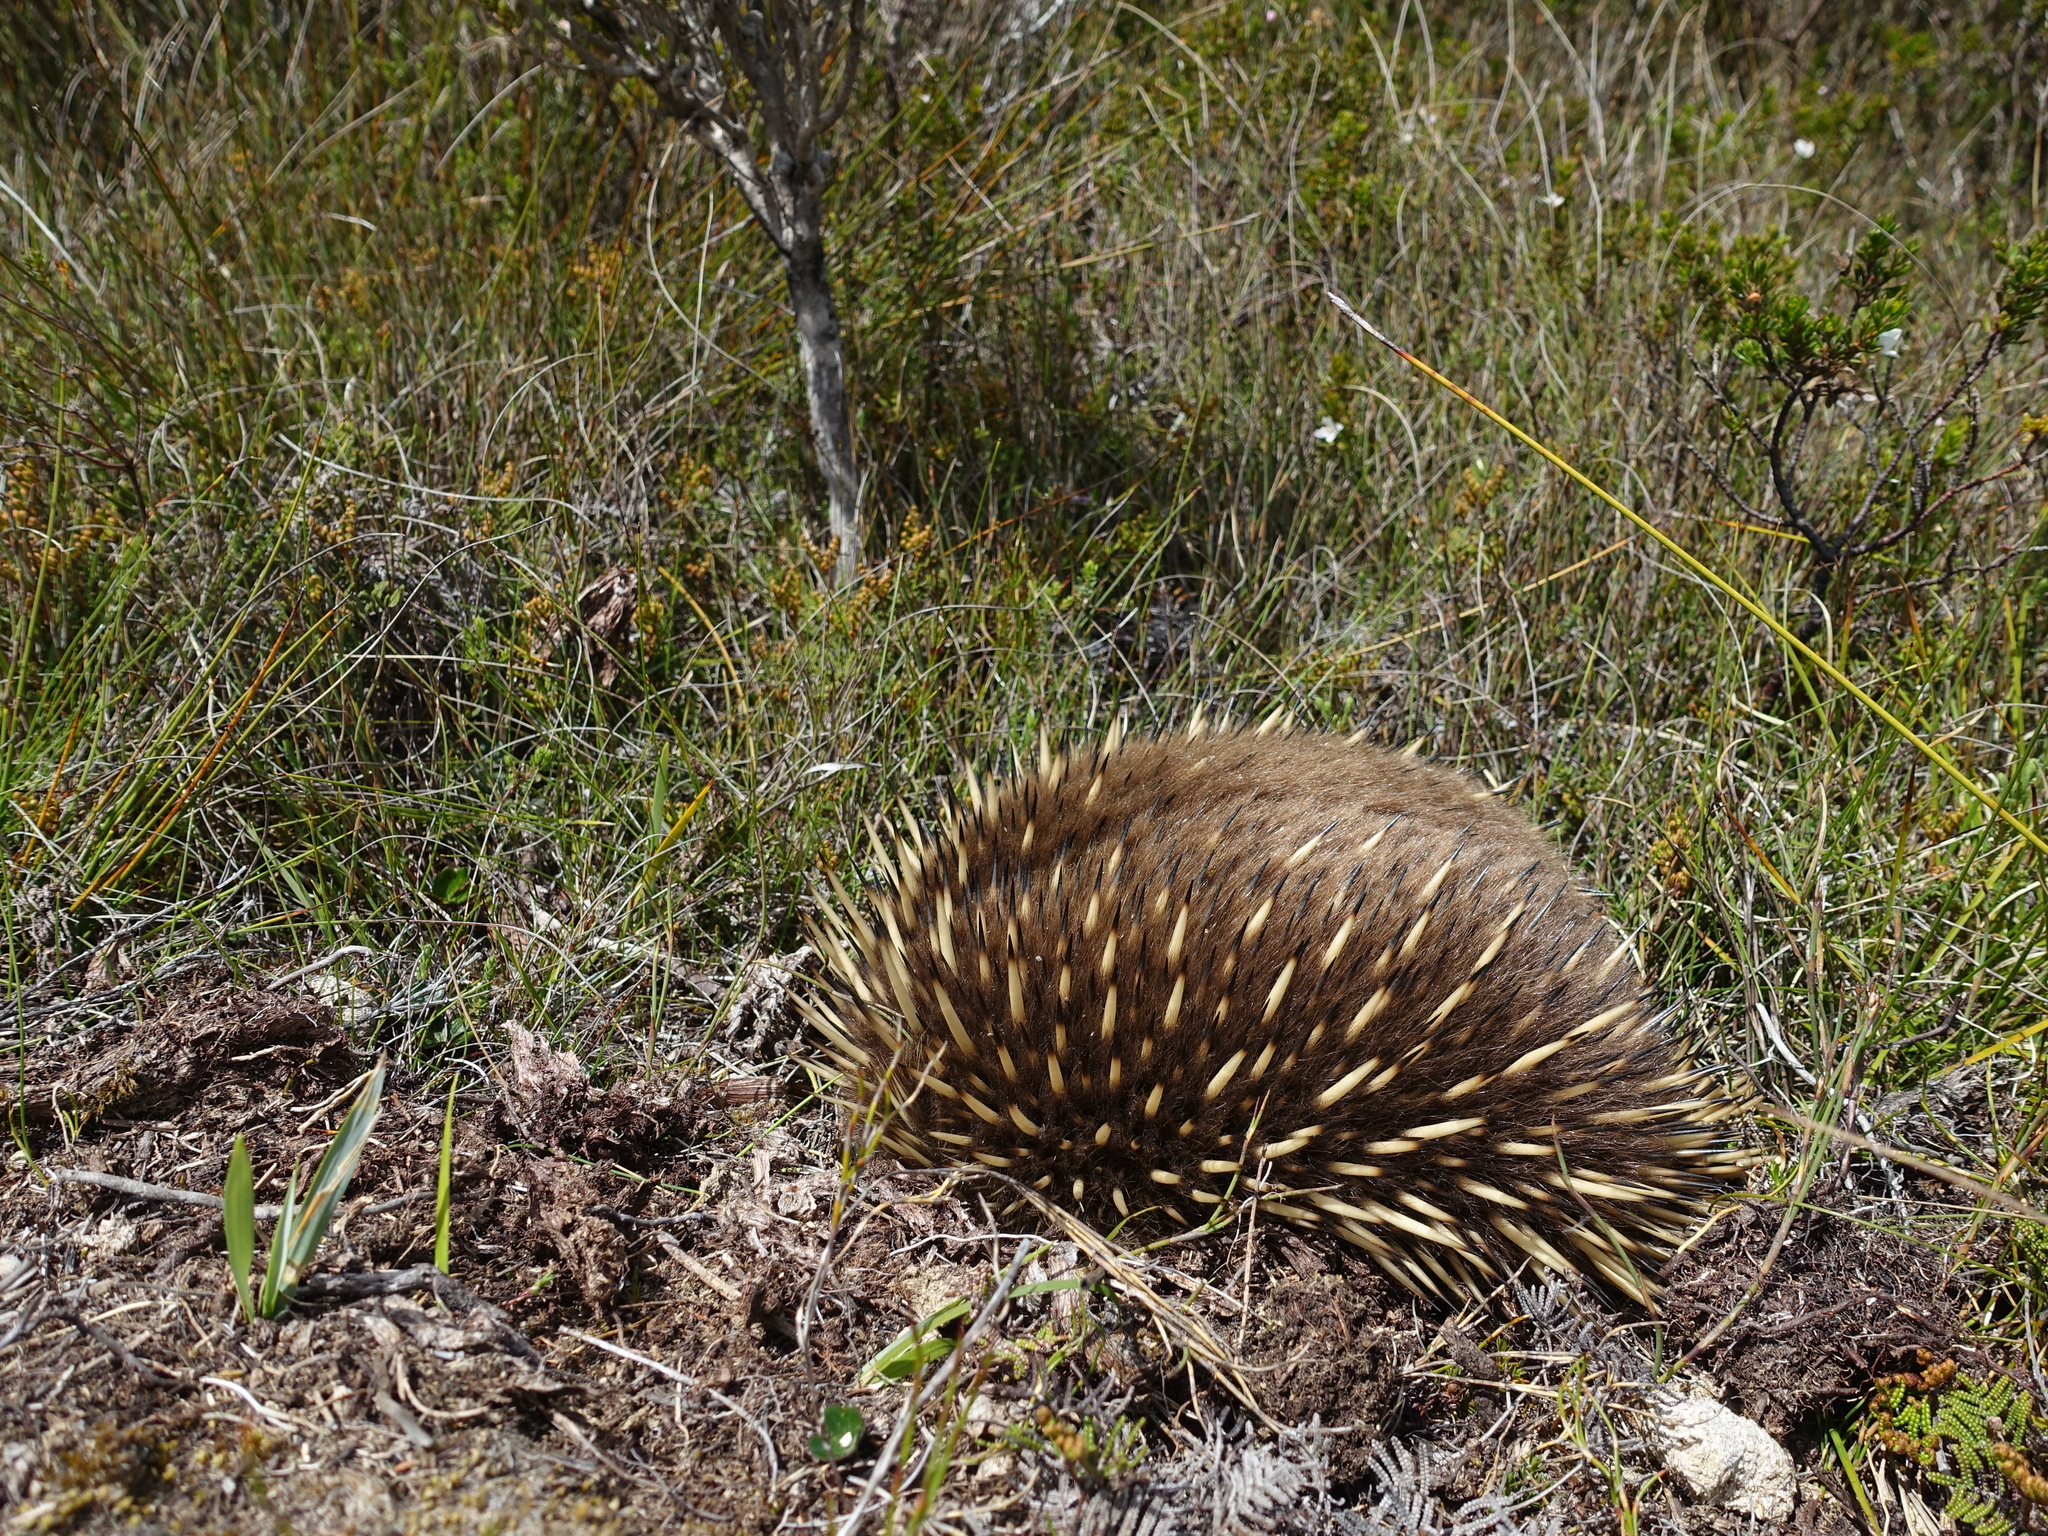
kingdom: Animalia
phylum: Chordata
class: Mammalia
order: Monotremata
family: Tachyglossidae
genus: Tachyglossus
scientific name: Tachyglossus aculeatus
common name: Short-beaked echidna
